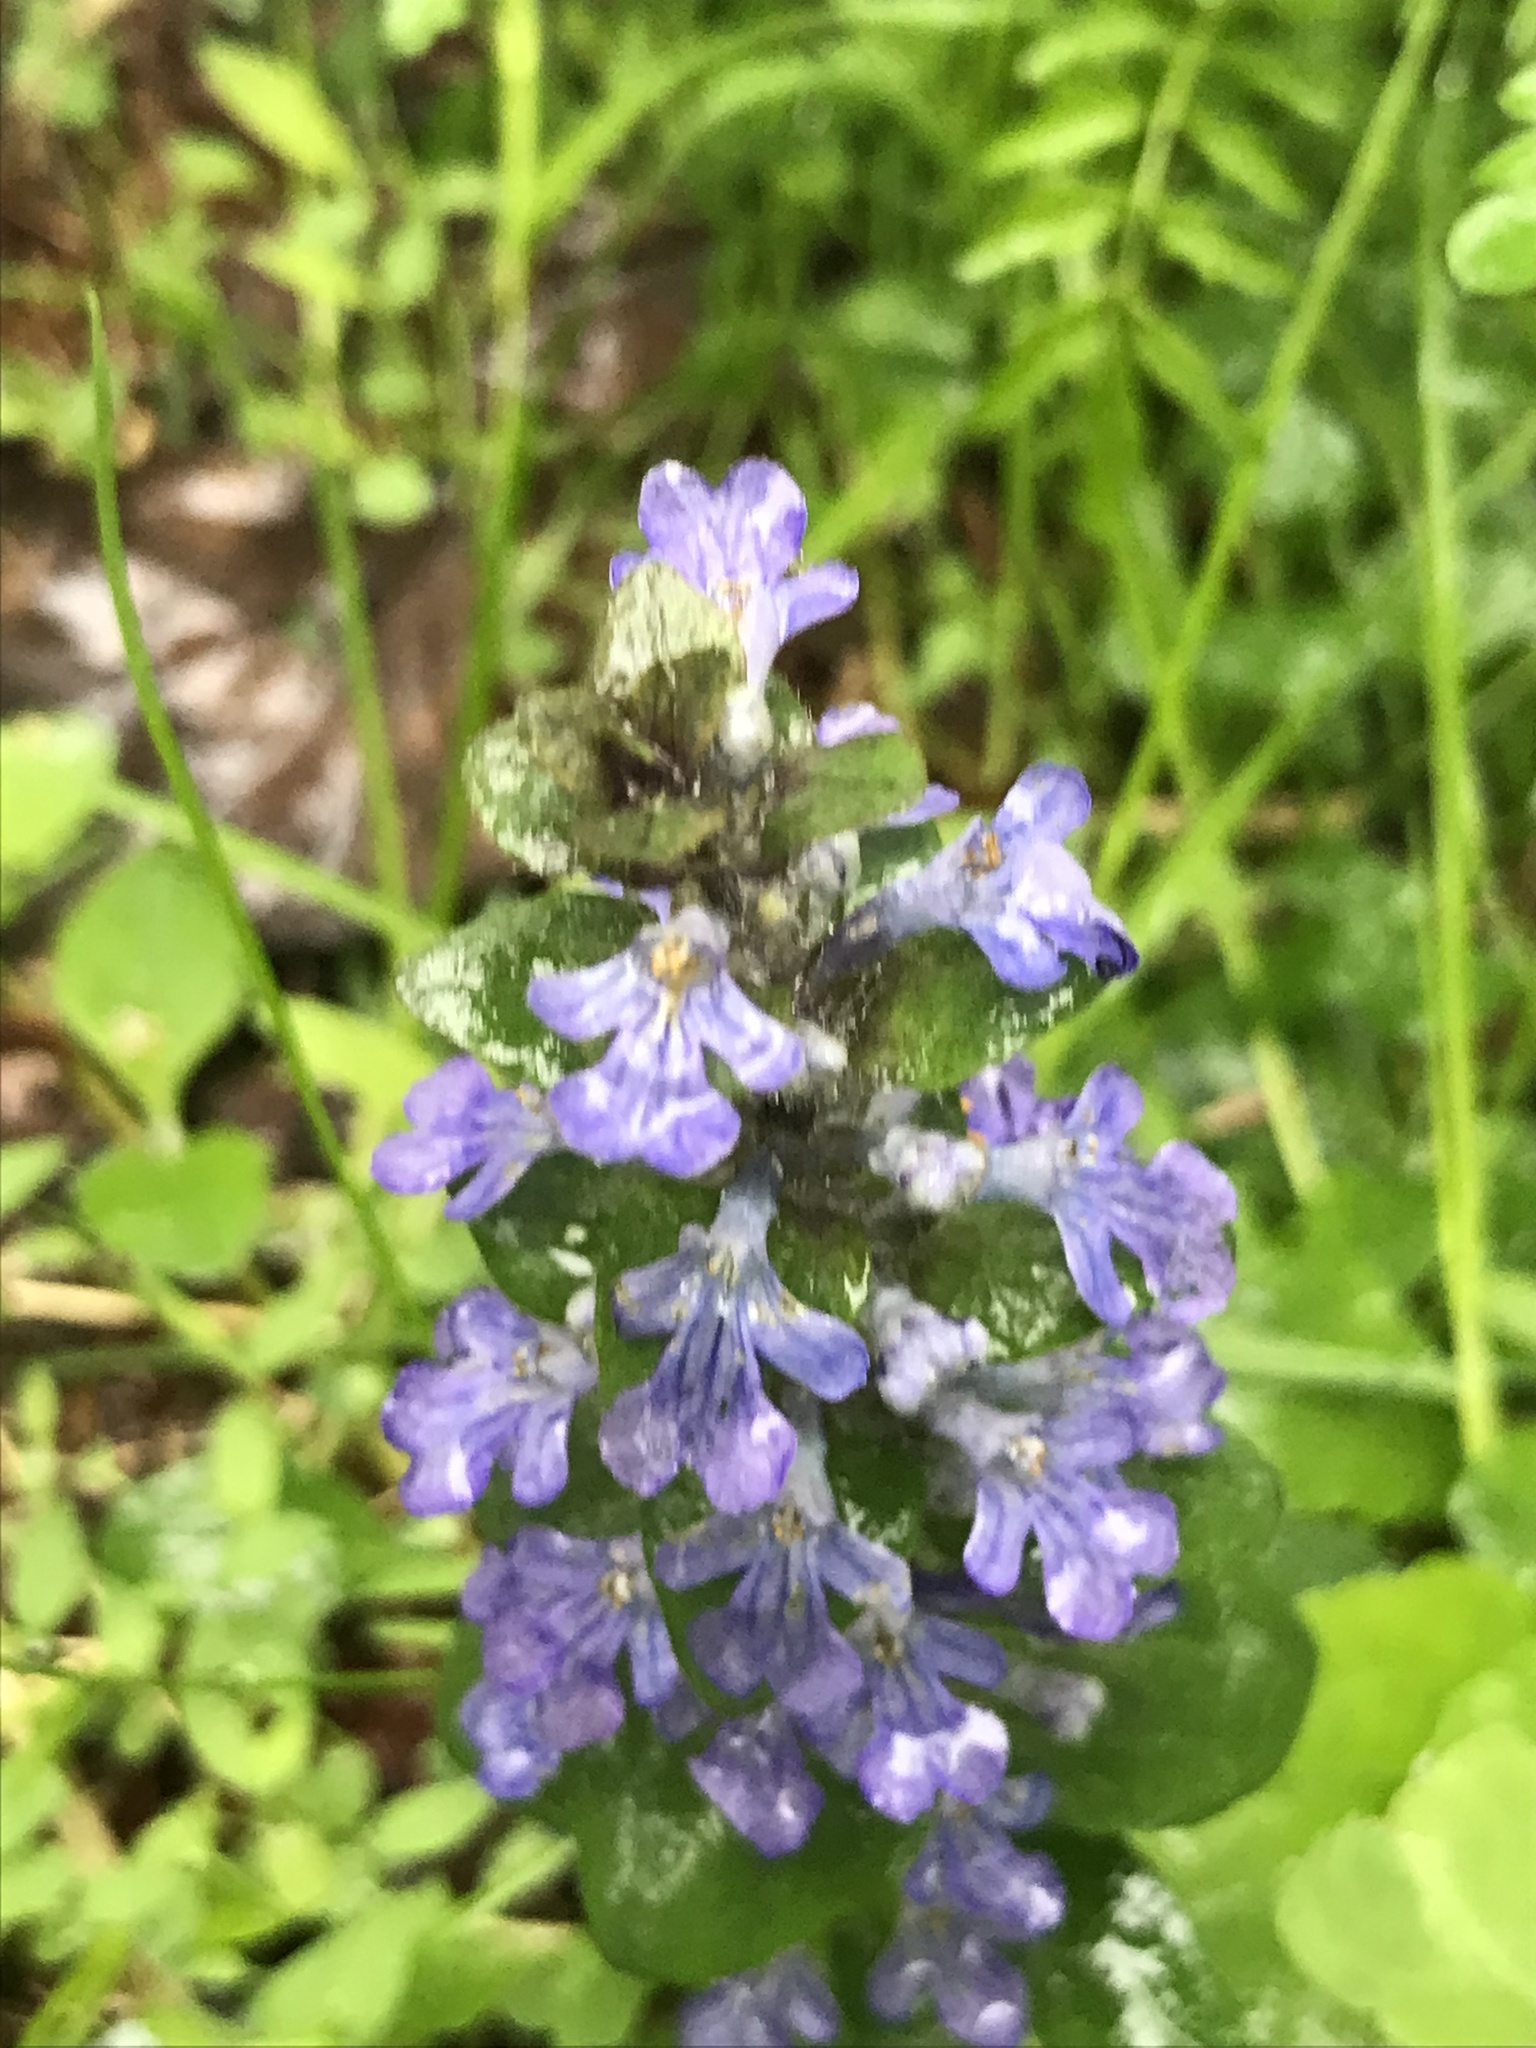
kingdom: Plantae
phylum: Tracheophyta
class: Magnoliopsida
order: Lamiales
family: Lamiaceae
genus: Ajuga
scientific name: Ajuga reptans
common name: Bugle
